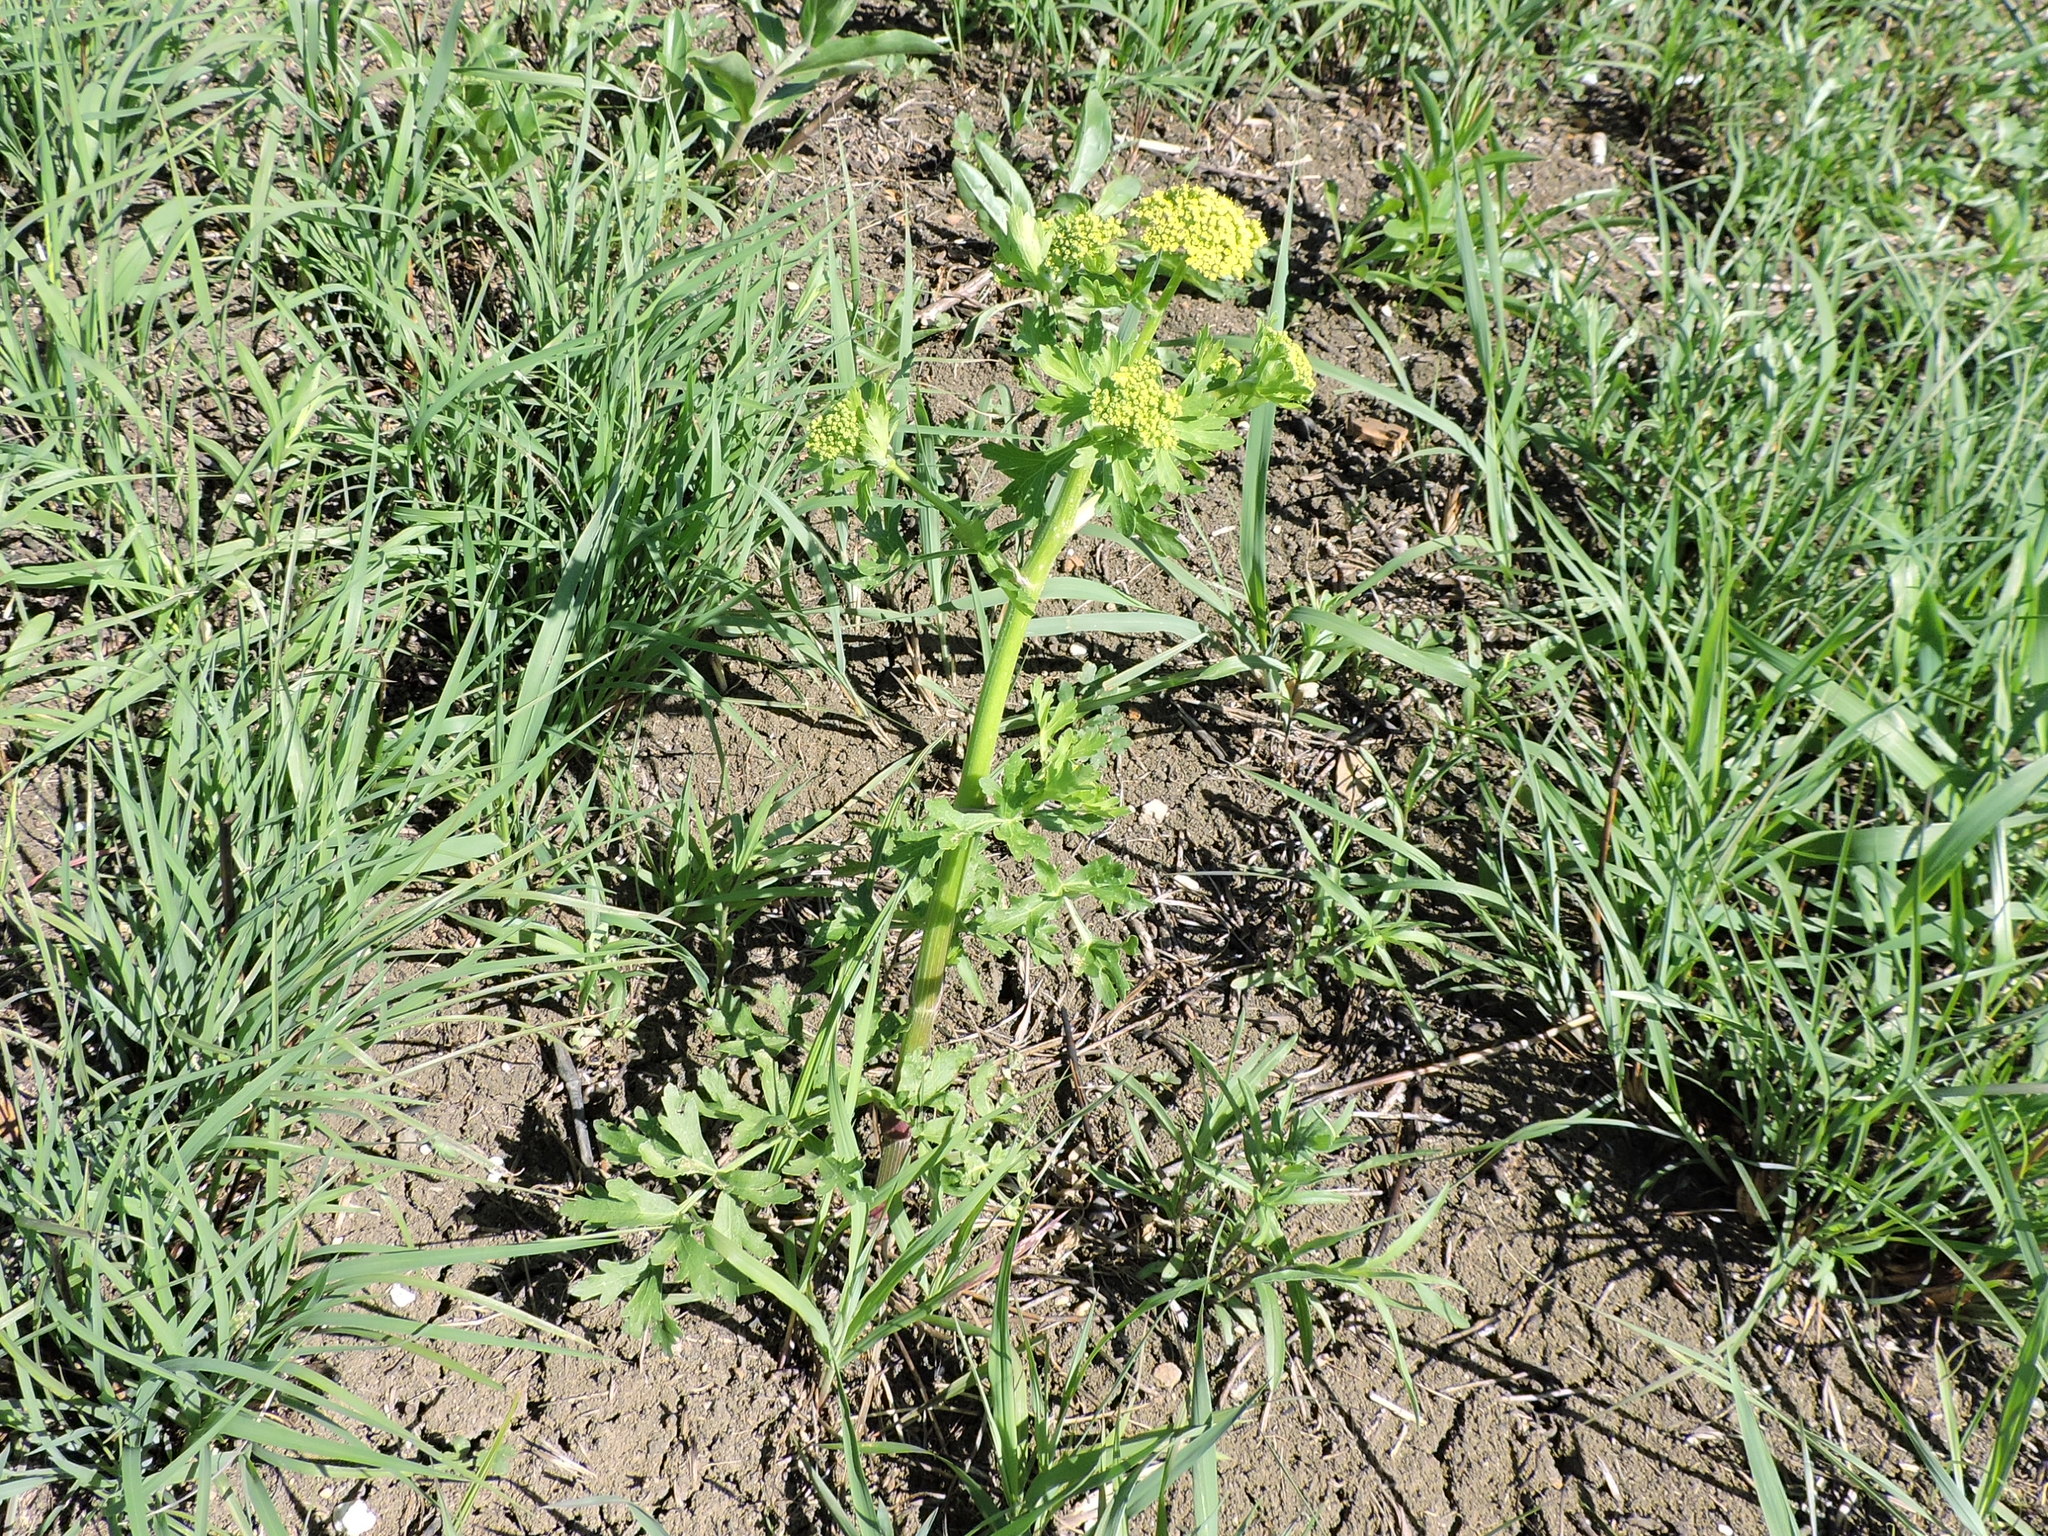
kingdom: Plantae
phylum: Tracheophyta
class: Magnoliopsida
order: Apiales
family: Apiaceae
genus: Polytaenia
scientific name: Polytaenia texana
